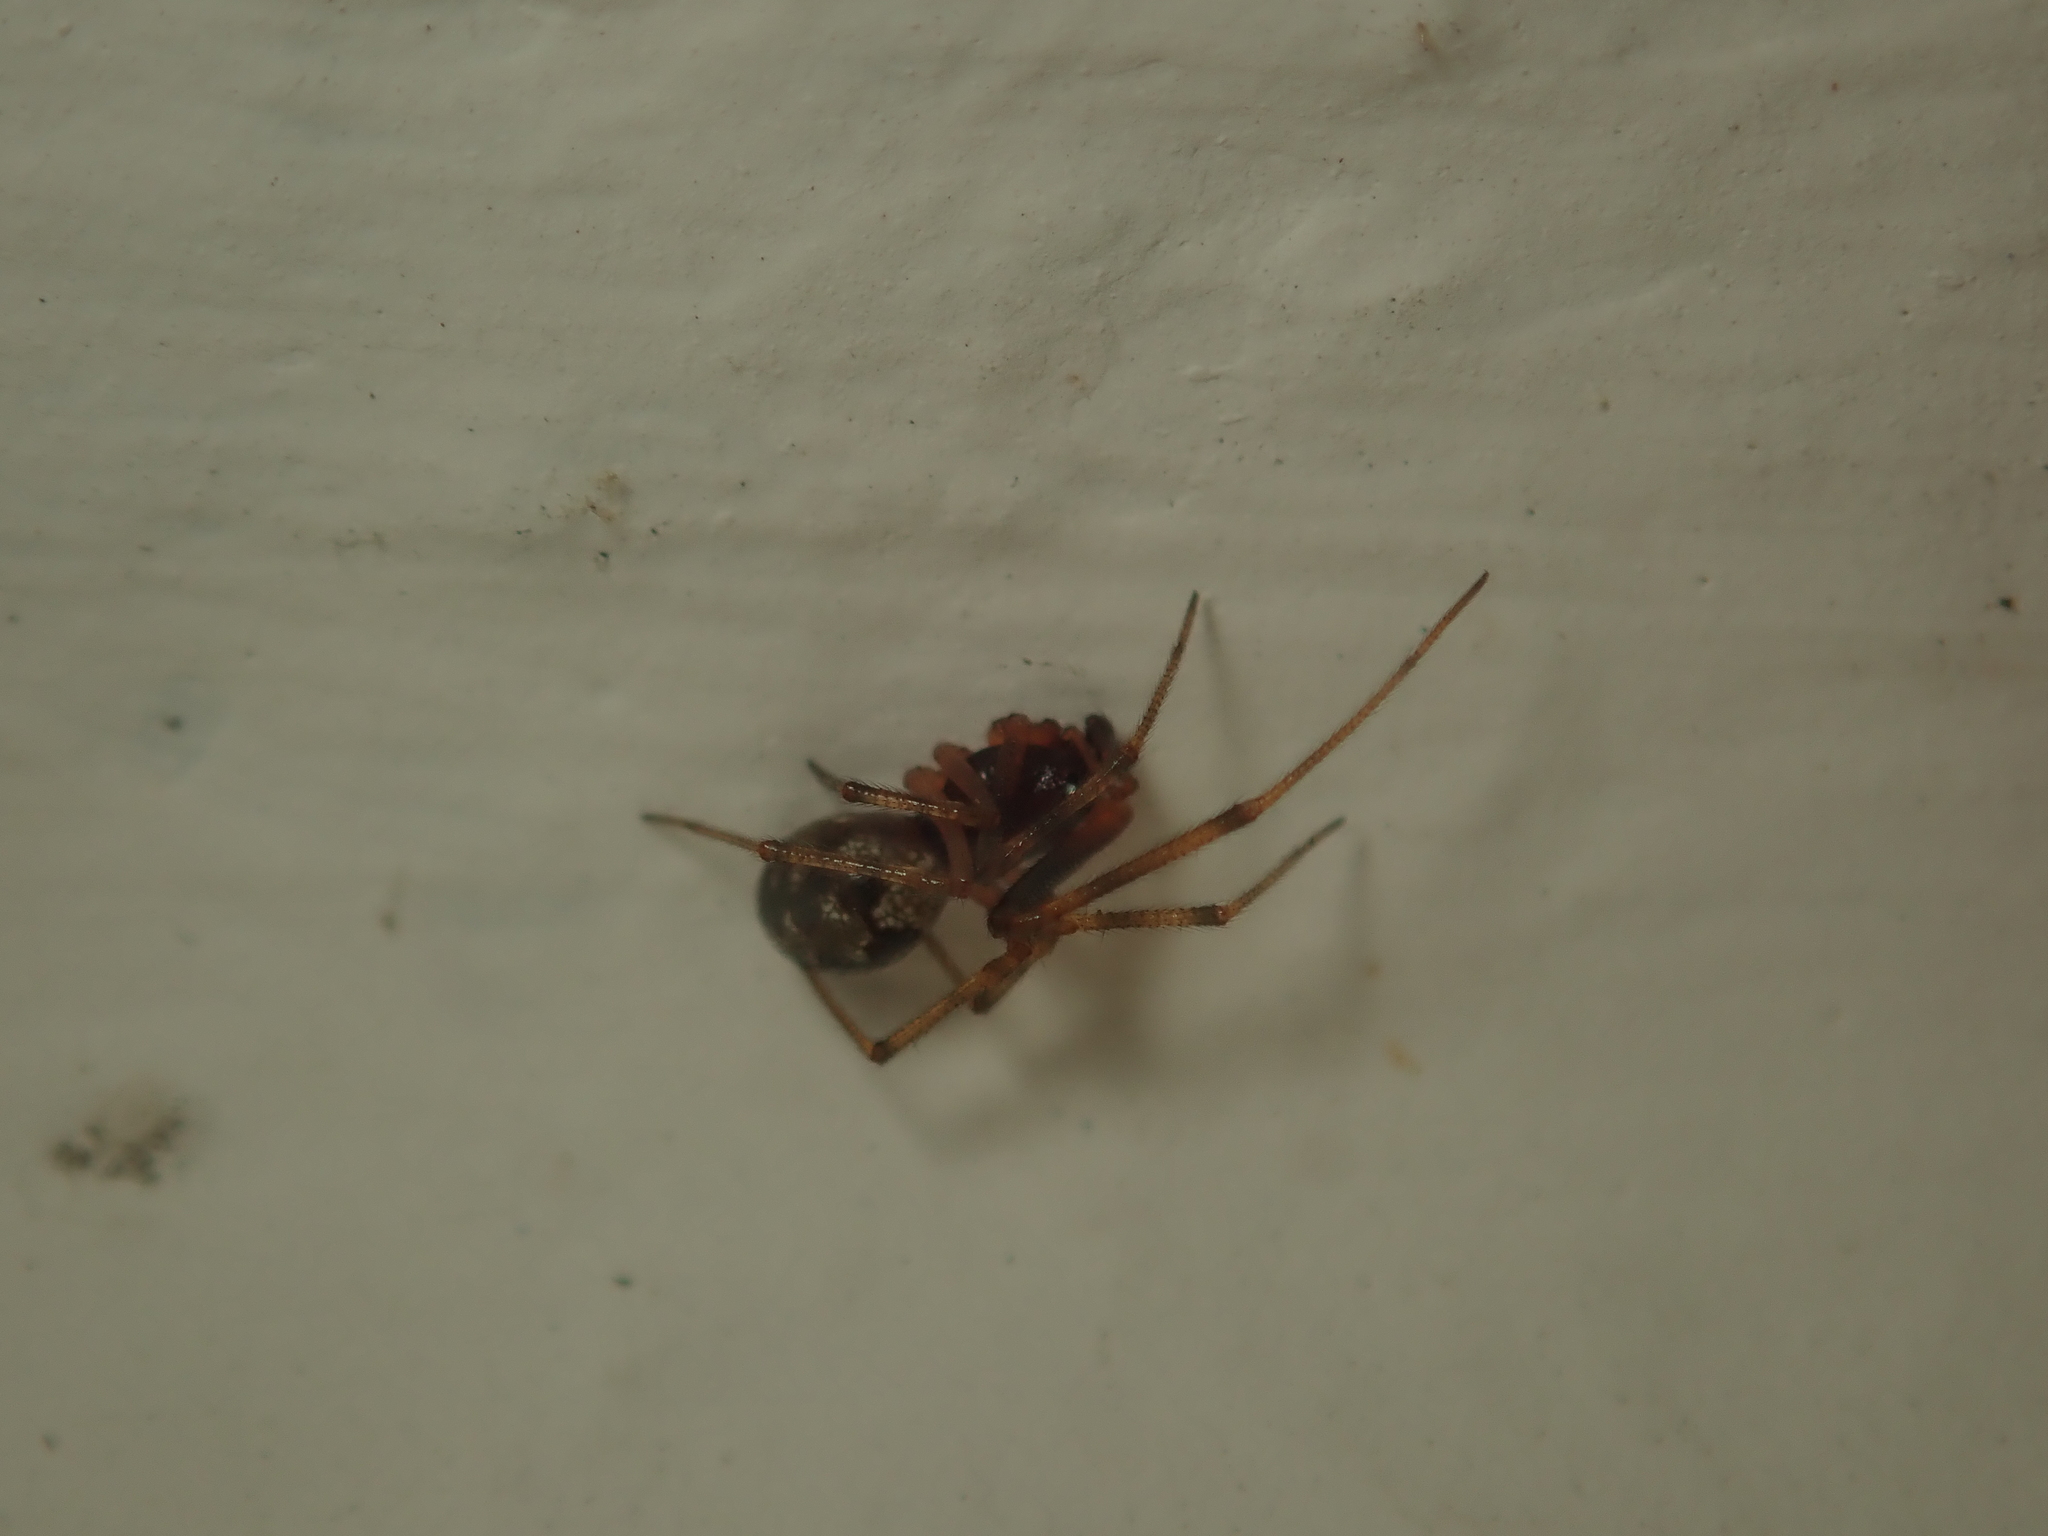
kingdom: Animalia
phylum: Arthropoda
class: Arachnida
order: Araneae
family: Theridiidae
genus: Steatoda
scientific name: Steatoda triangulosa
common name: Triangulate bud spider
